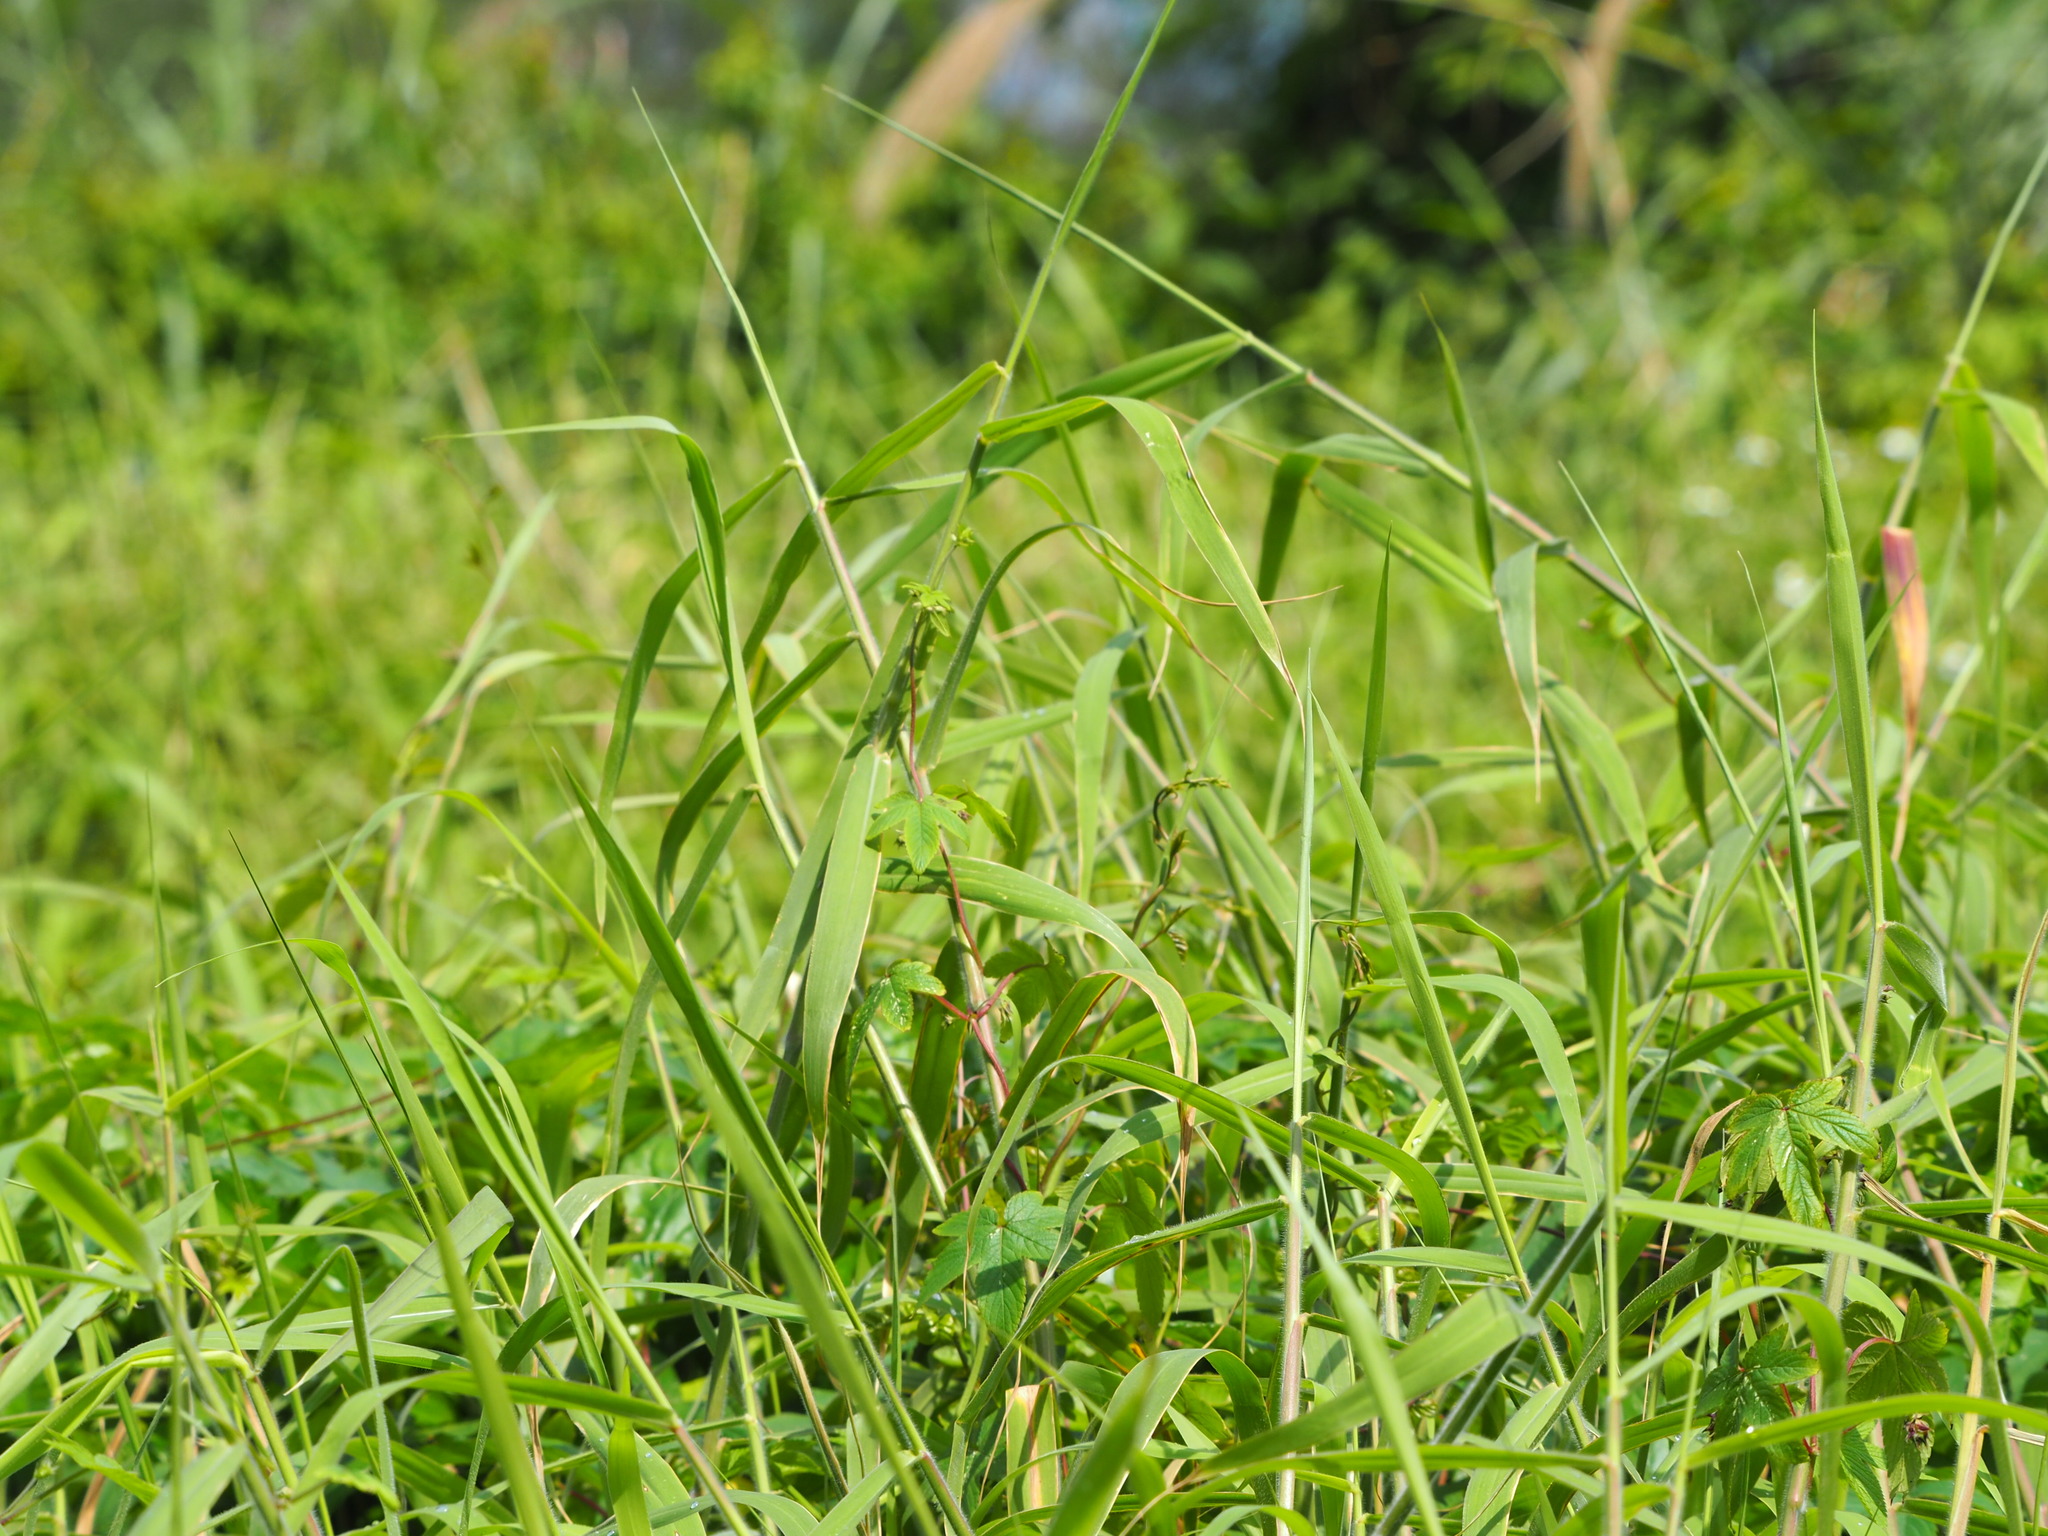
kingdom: Plantae
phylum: Tracheophyta
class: Liliopsida
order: Poales
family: Poaceae
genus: Urochloa
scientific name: Urochloa mutica
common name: Para grass
